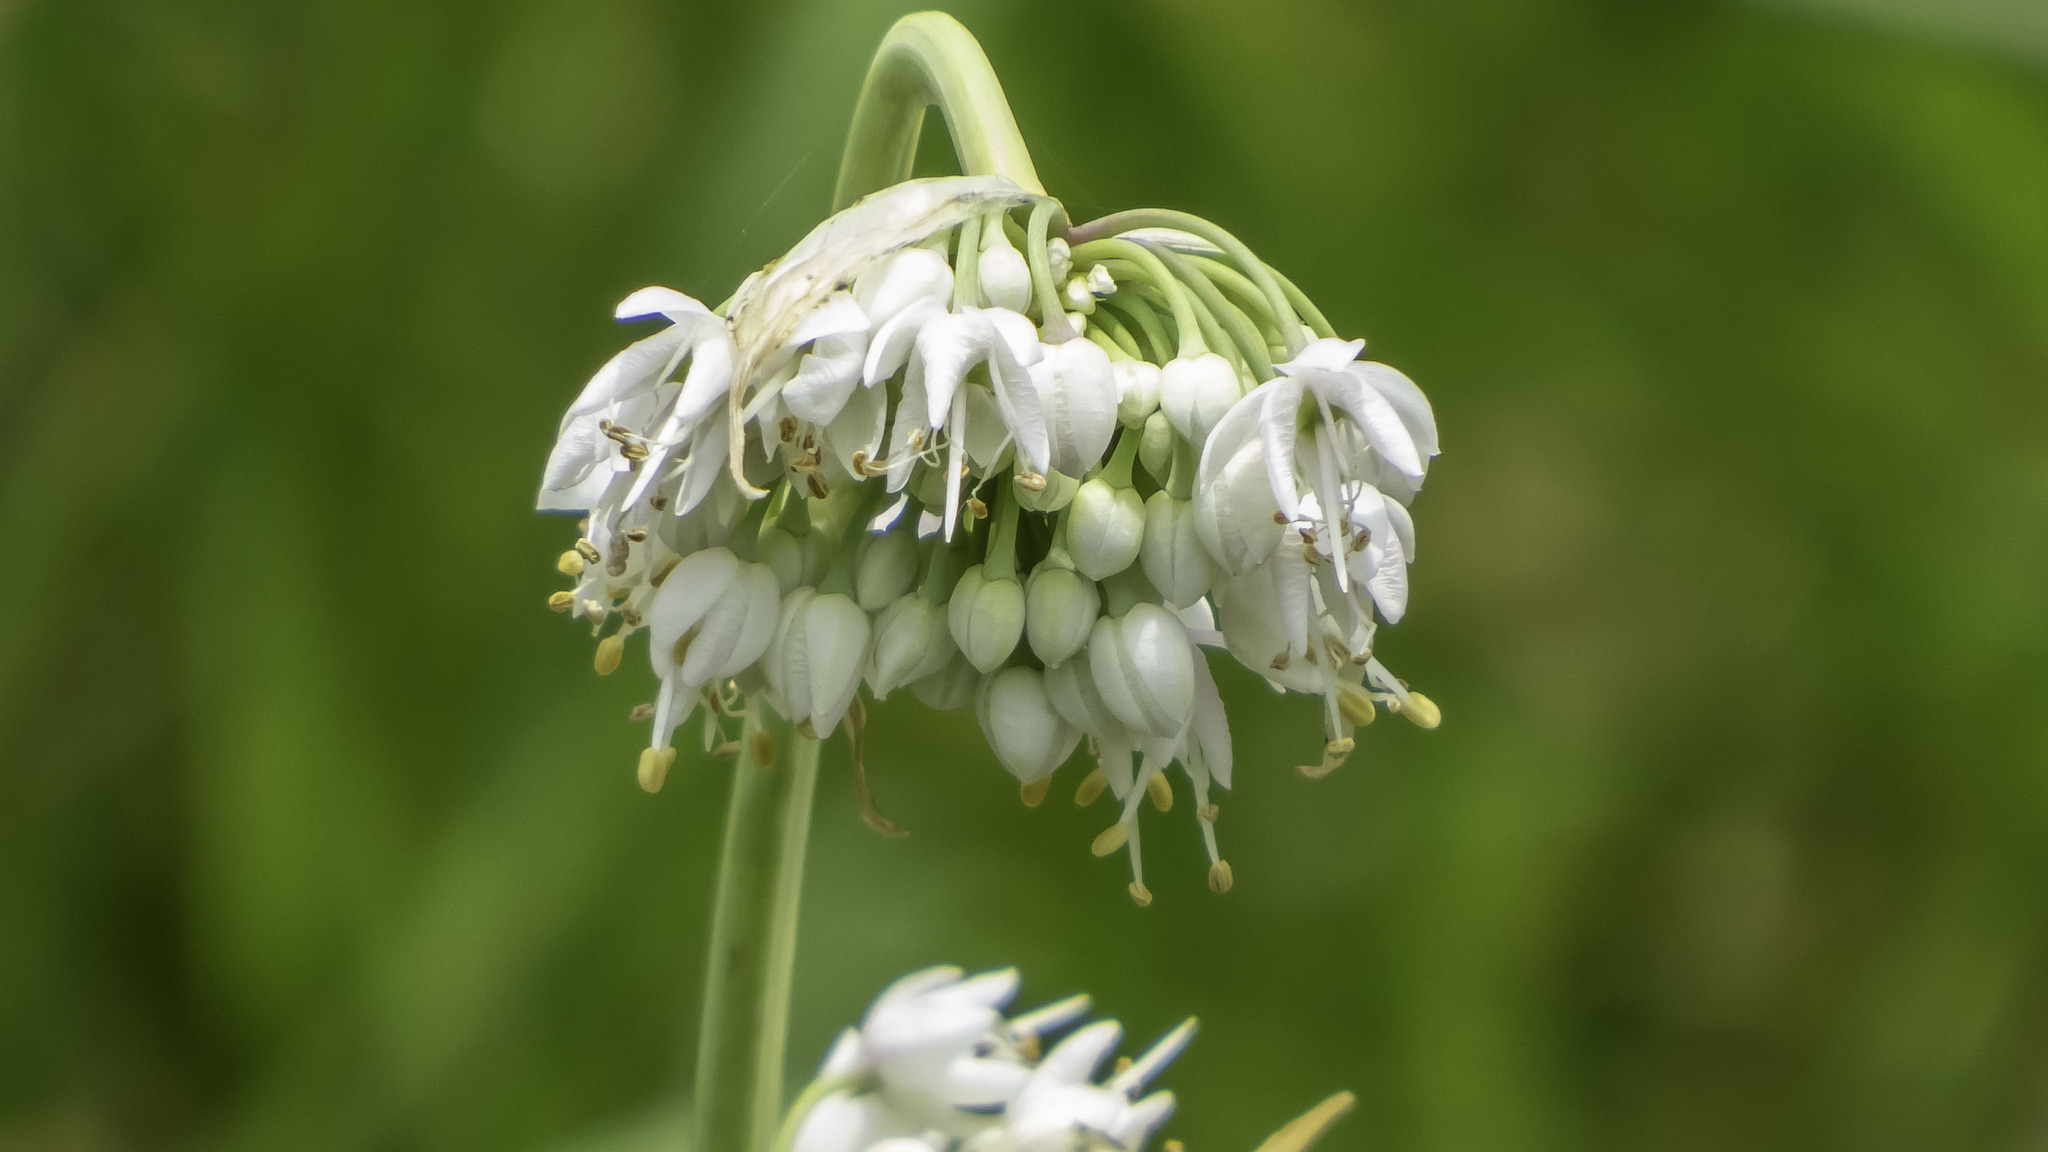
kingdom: Plantae
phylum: Tracheophyta
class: Liliopsida
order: Asparagales
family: Amaryllidaceae
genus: Allium
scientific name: Allium cernuum
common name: Nodding onion
